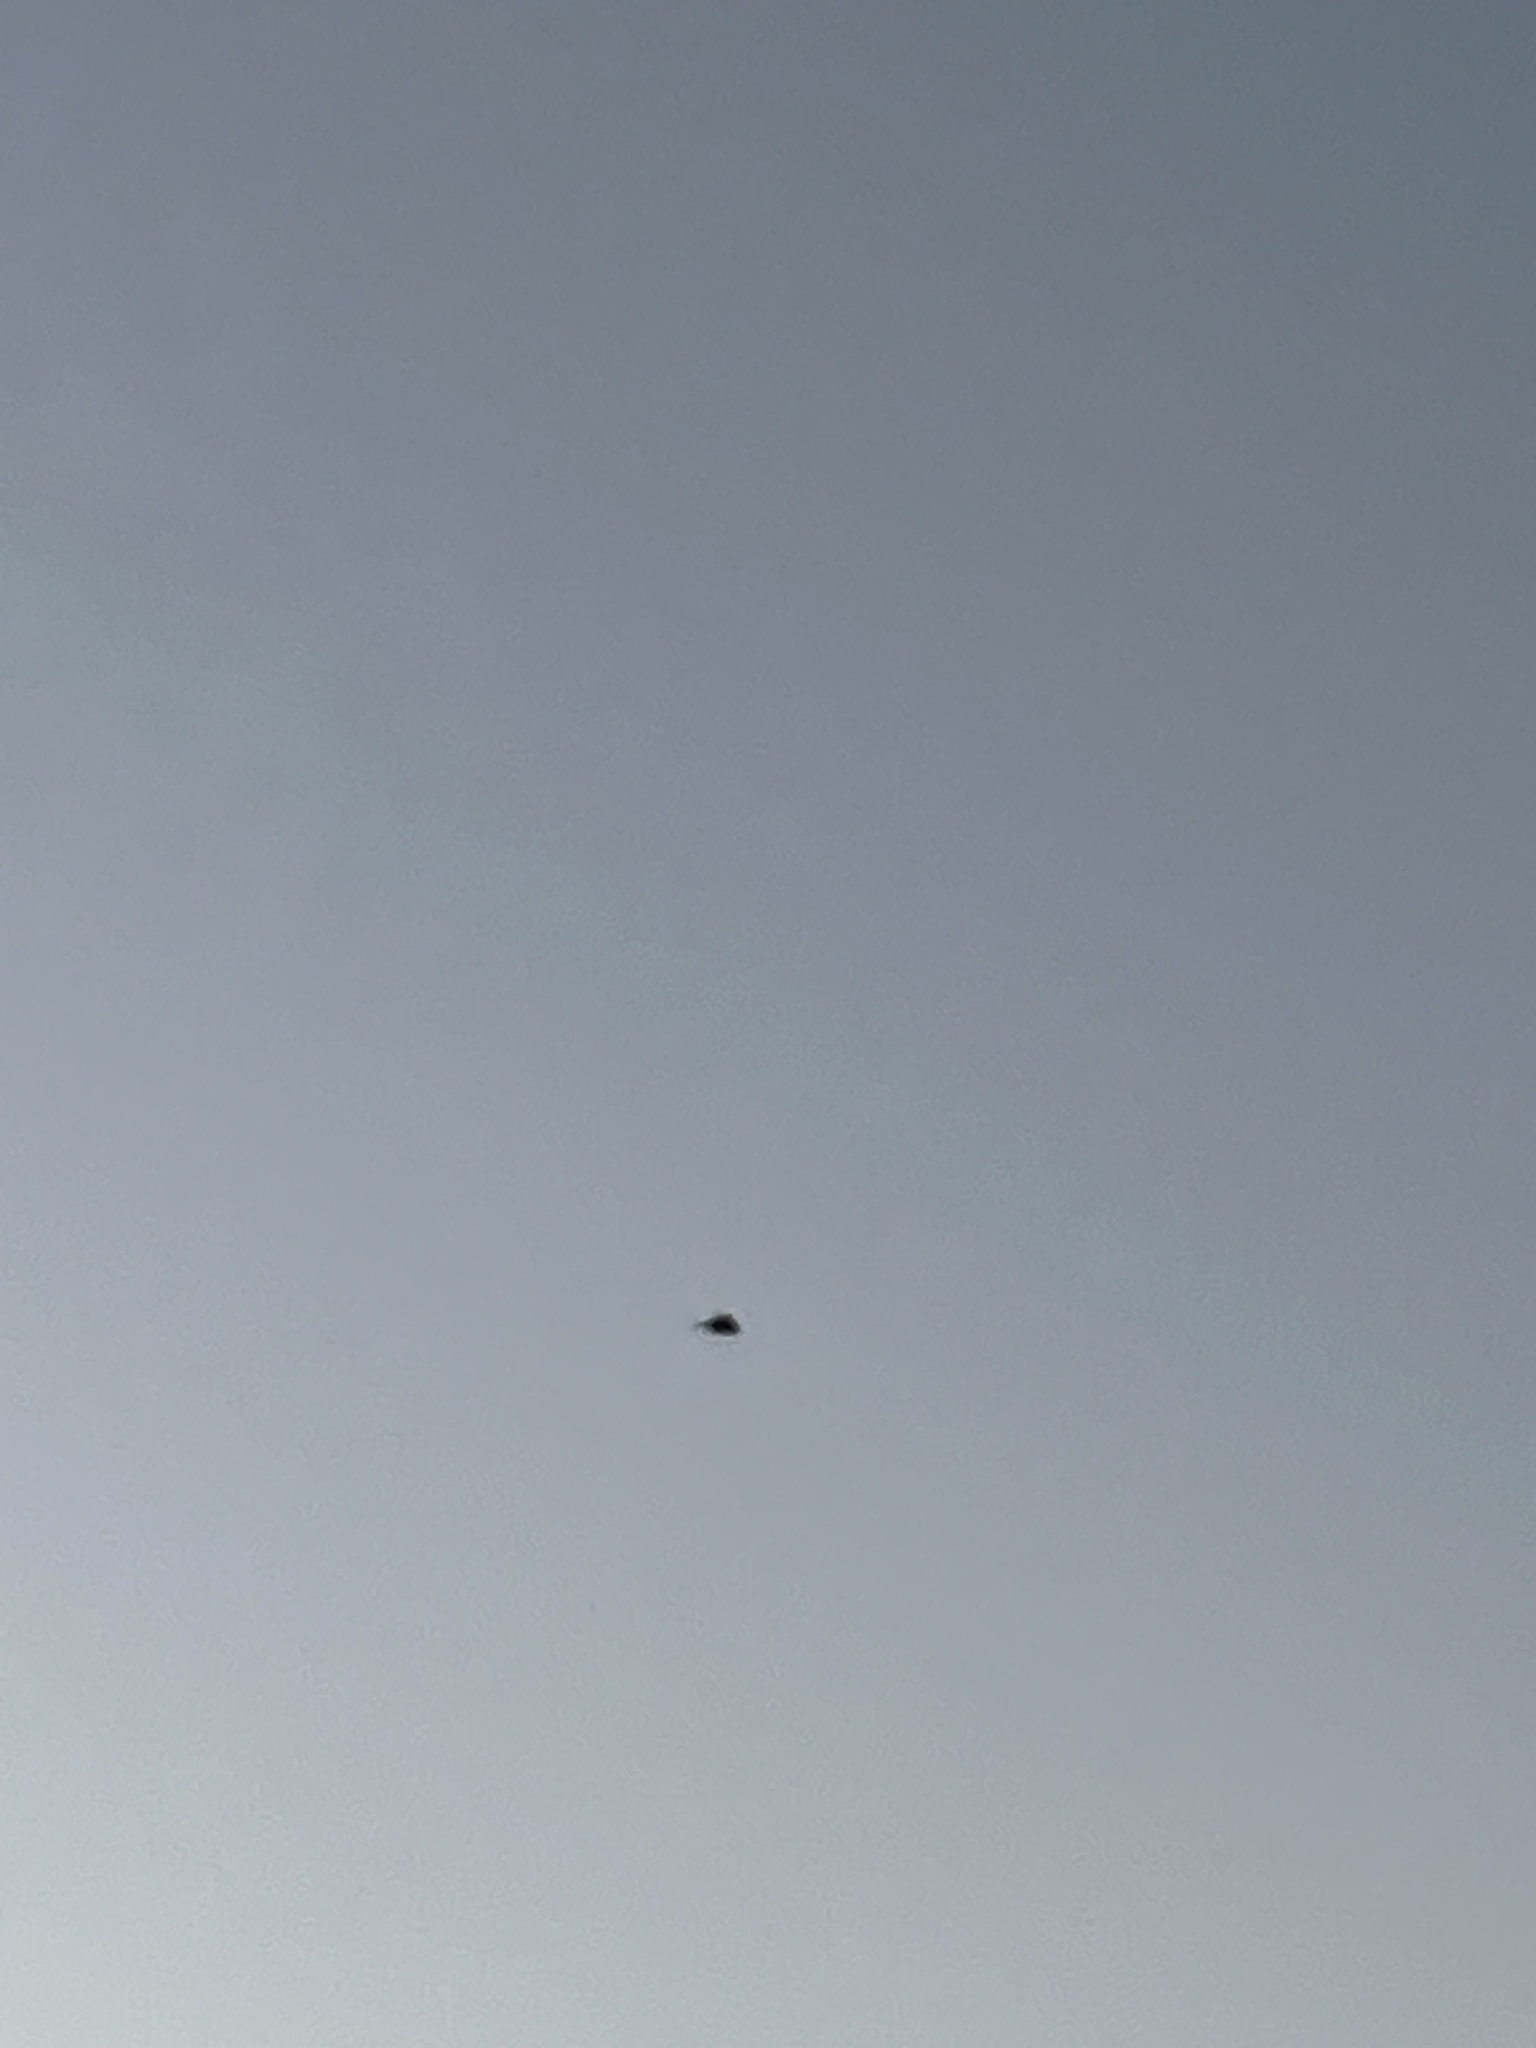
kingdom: Animalia
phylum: Chordata
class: Aves
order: Passeriformes
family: Tyrannidae
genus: Sayornis
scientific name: Sayornis phoebe
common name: Eastern phoebe
